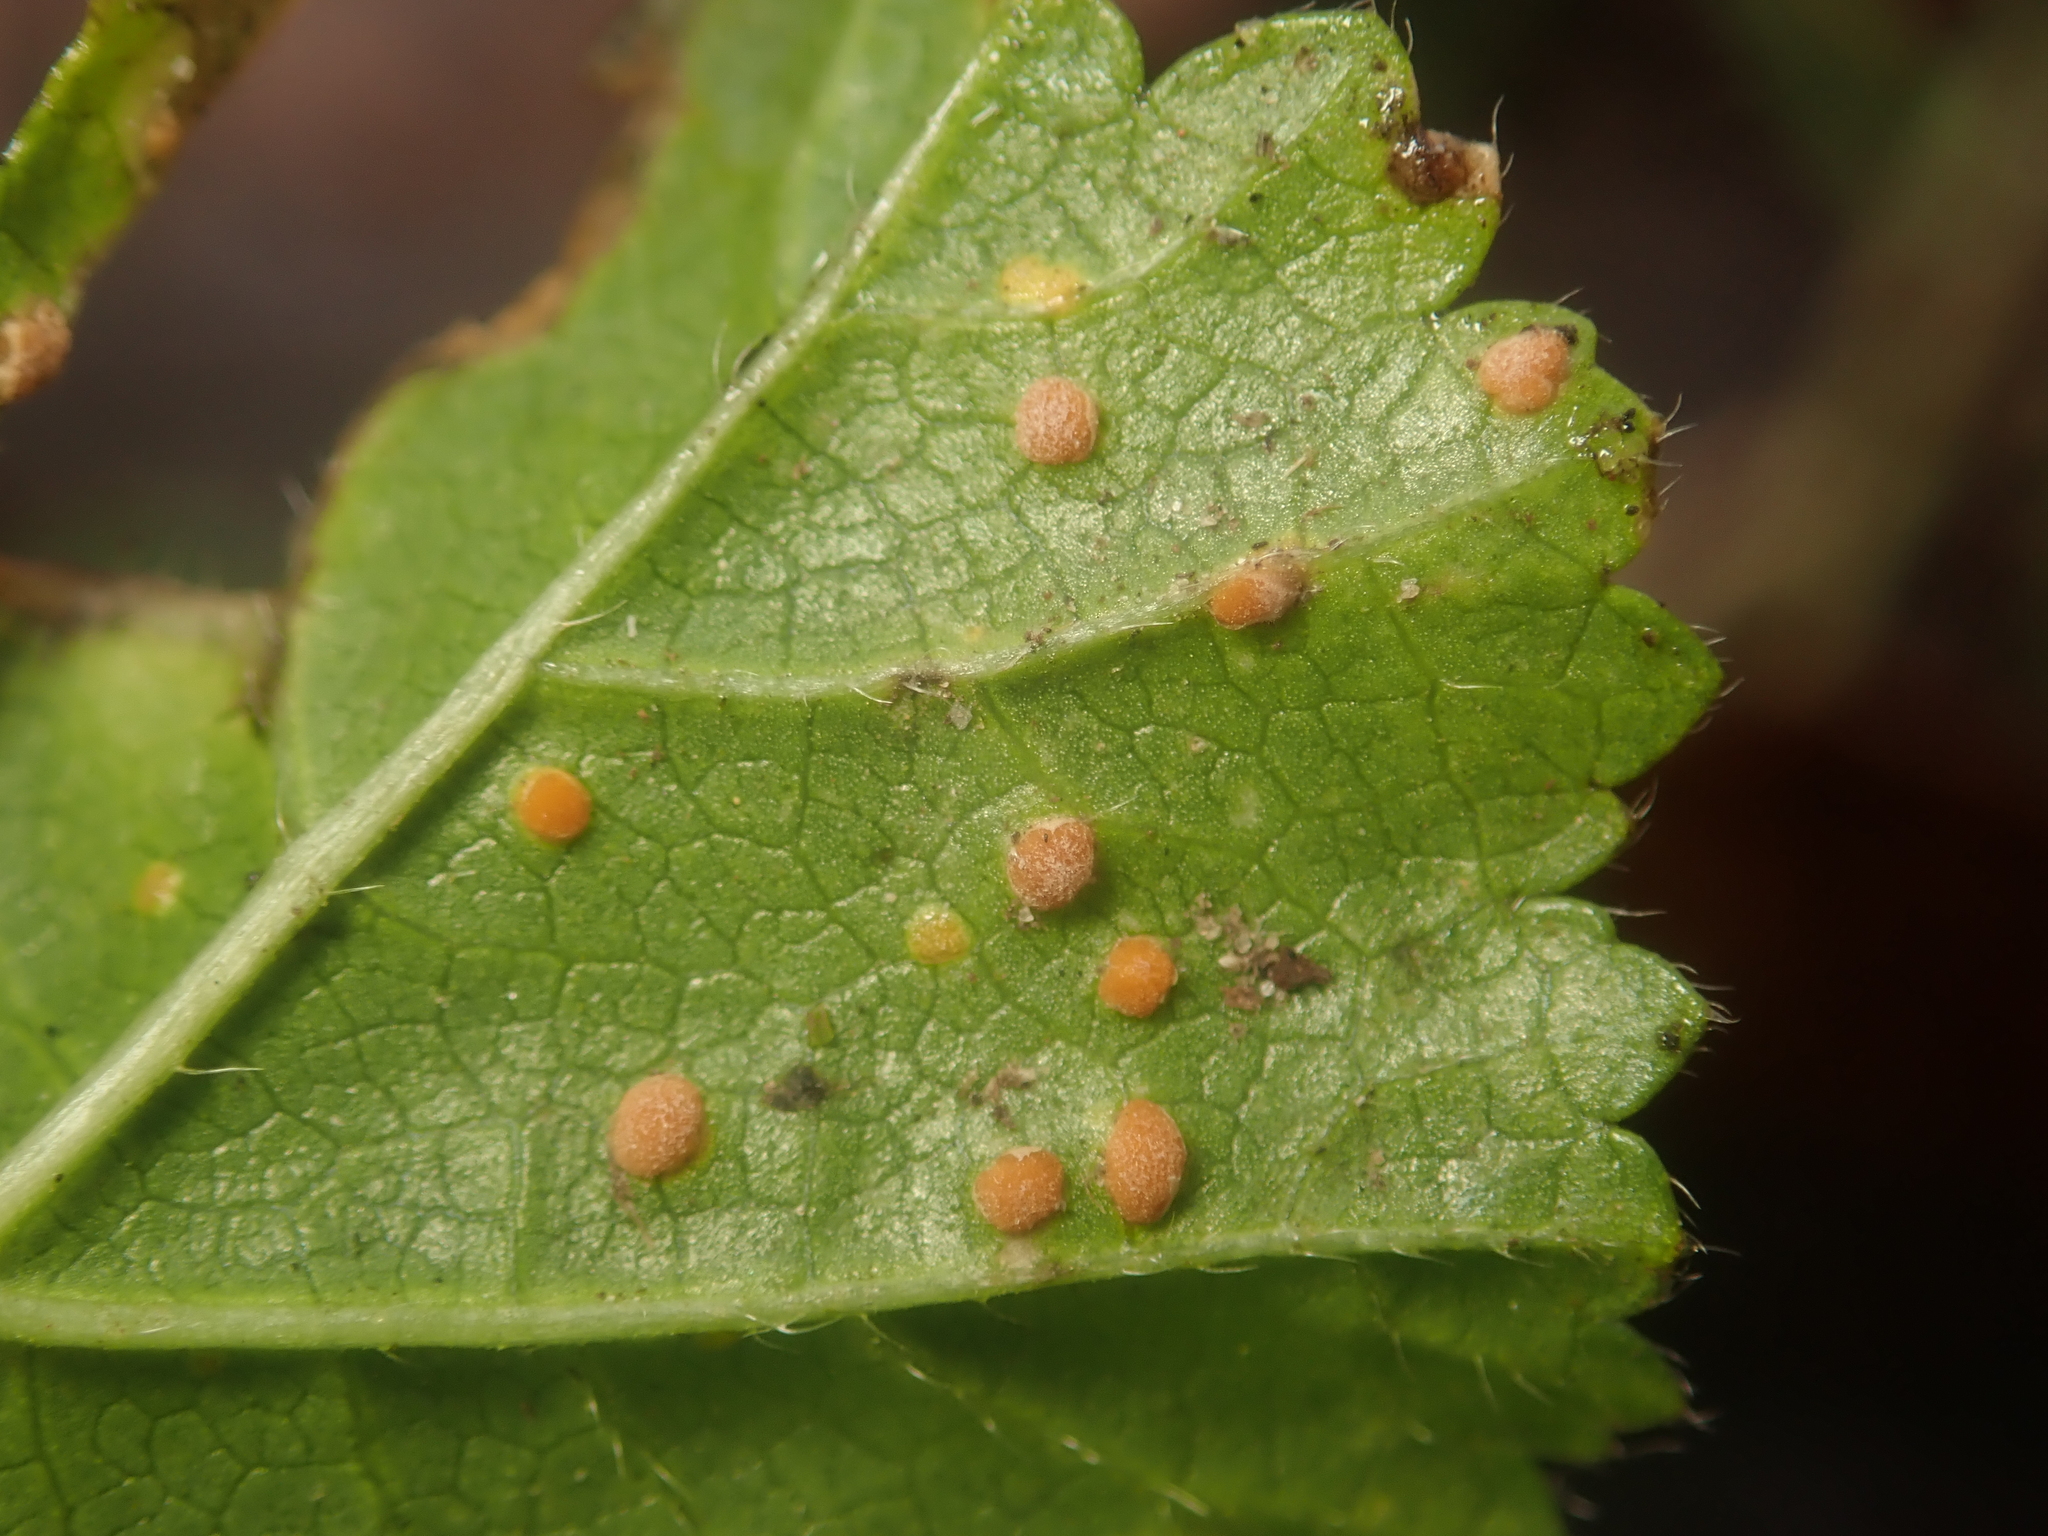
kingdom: Fungi
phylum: Basidiomycota
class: Pucciniomycetes
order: Pucciniales
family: Pucciniaceae
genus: Puccinia
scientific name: Puccinia malvacearum
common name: Hollyhock rust
